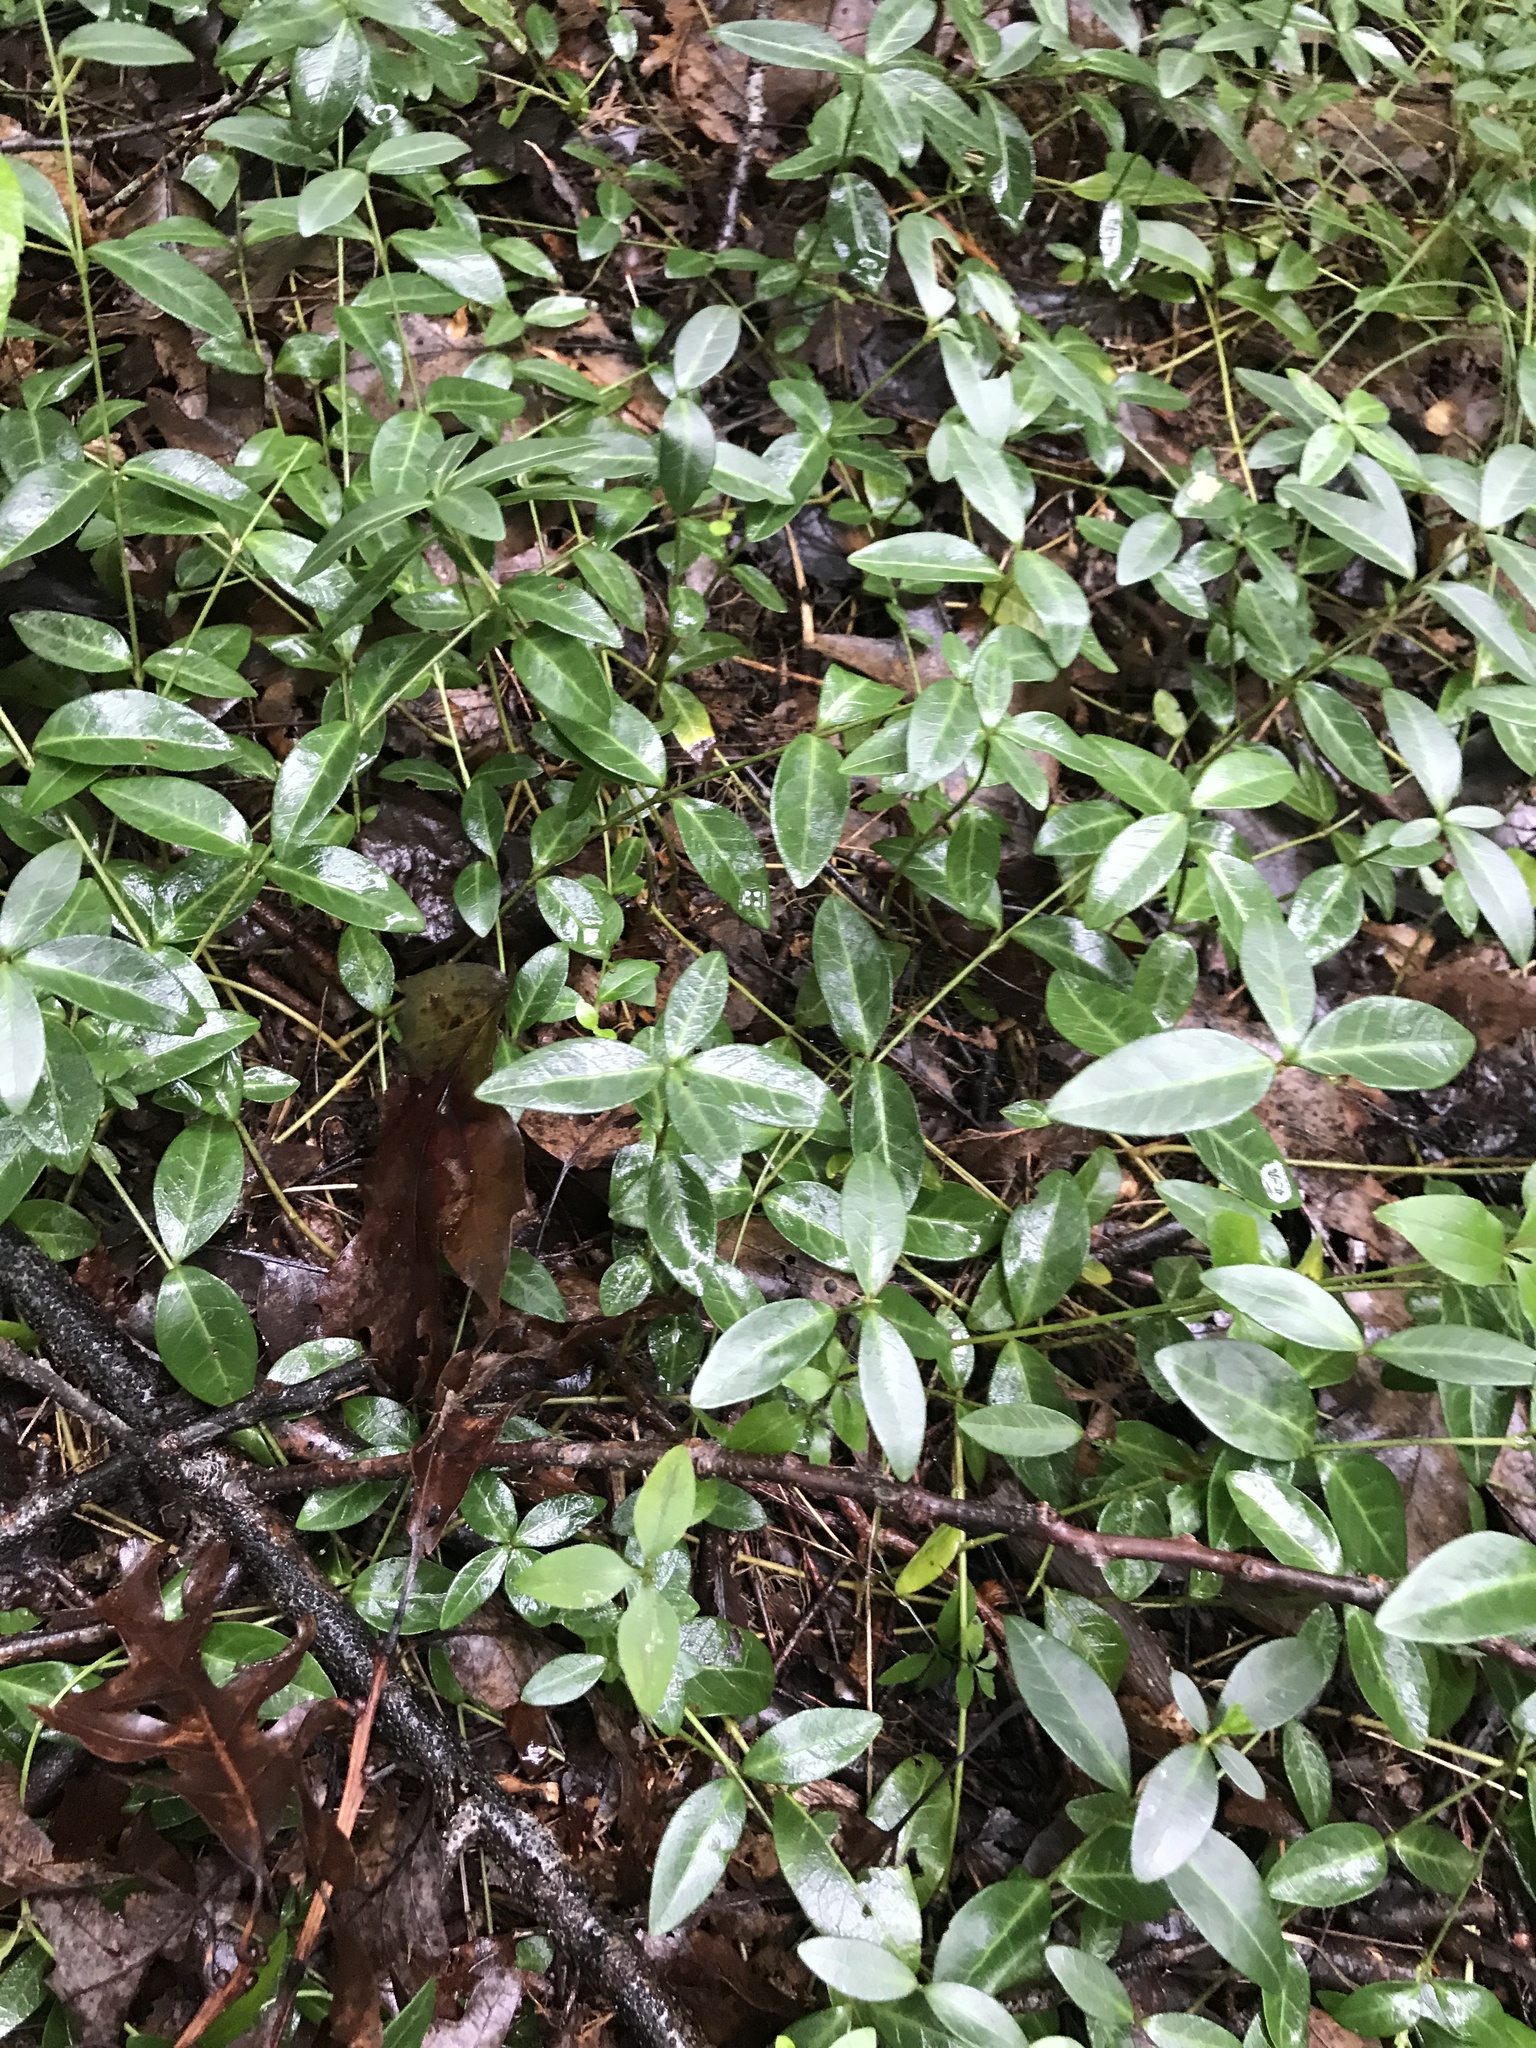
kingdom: Plantae
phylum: Tracheophyta
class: Magnoliopsida
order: Gentianales
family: Apocynaceae
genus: Vinca
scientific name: Vinca minor
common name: Lesser periwinkle
